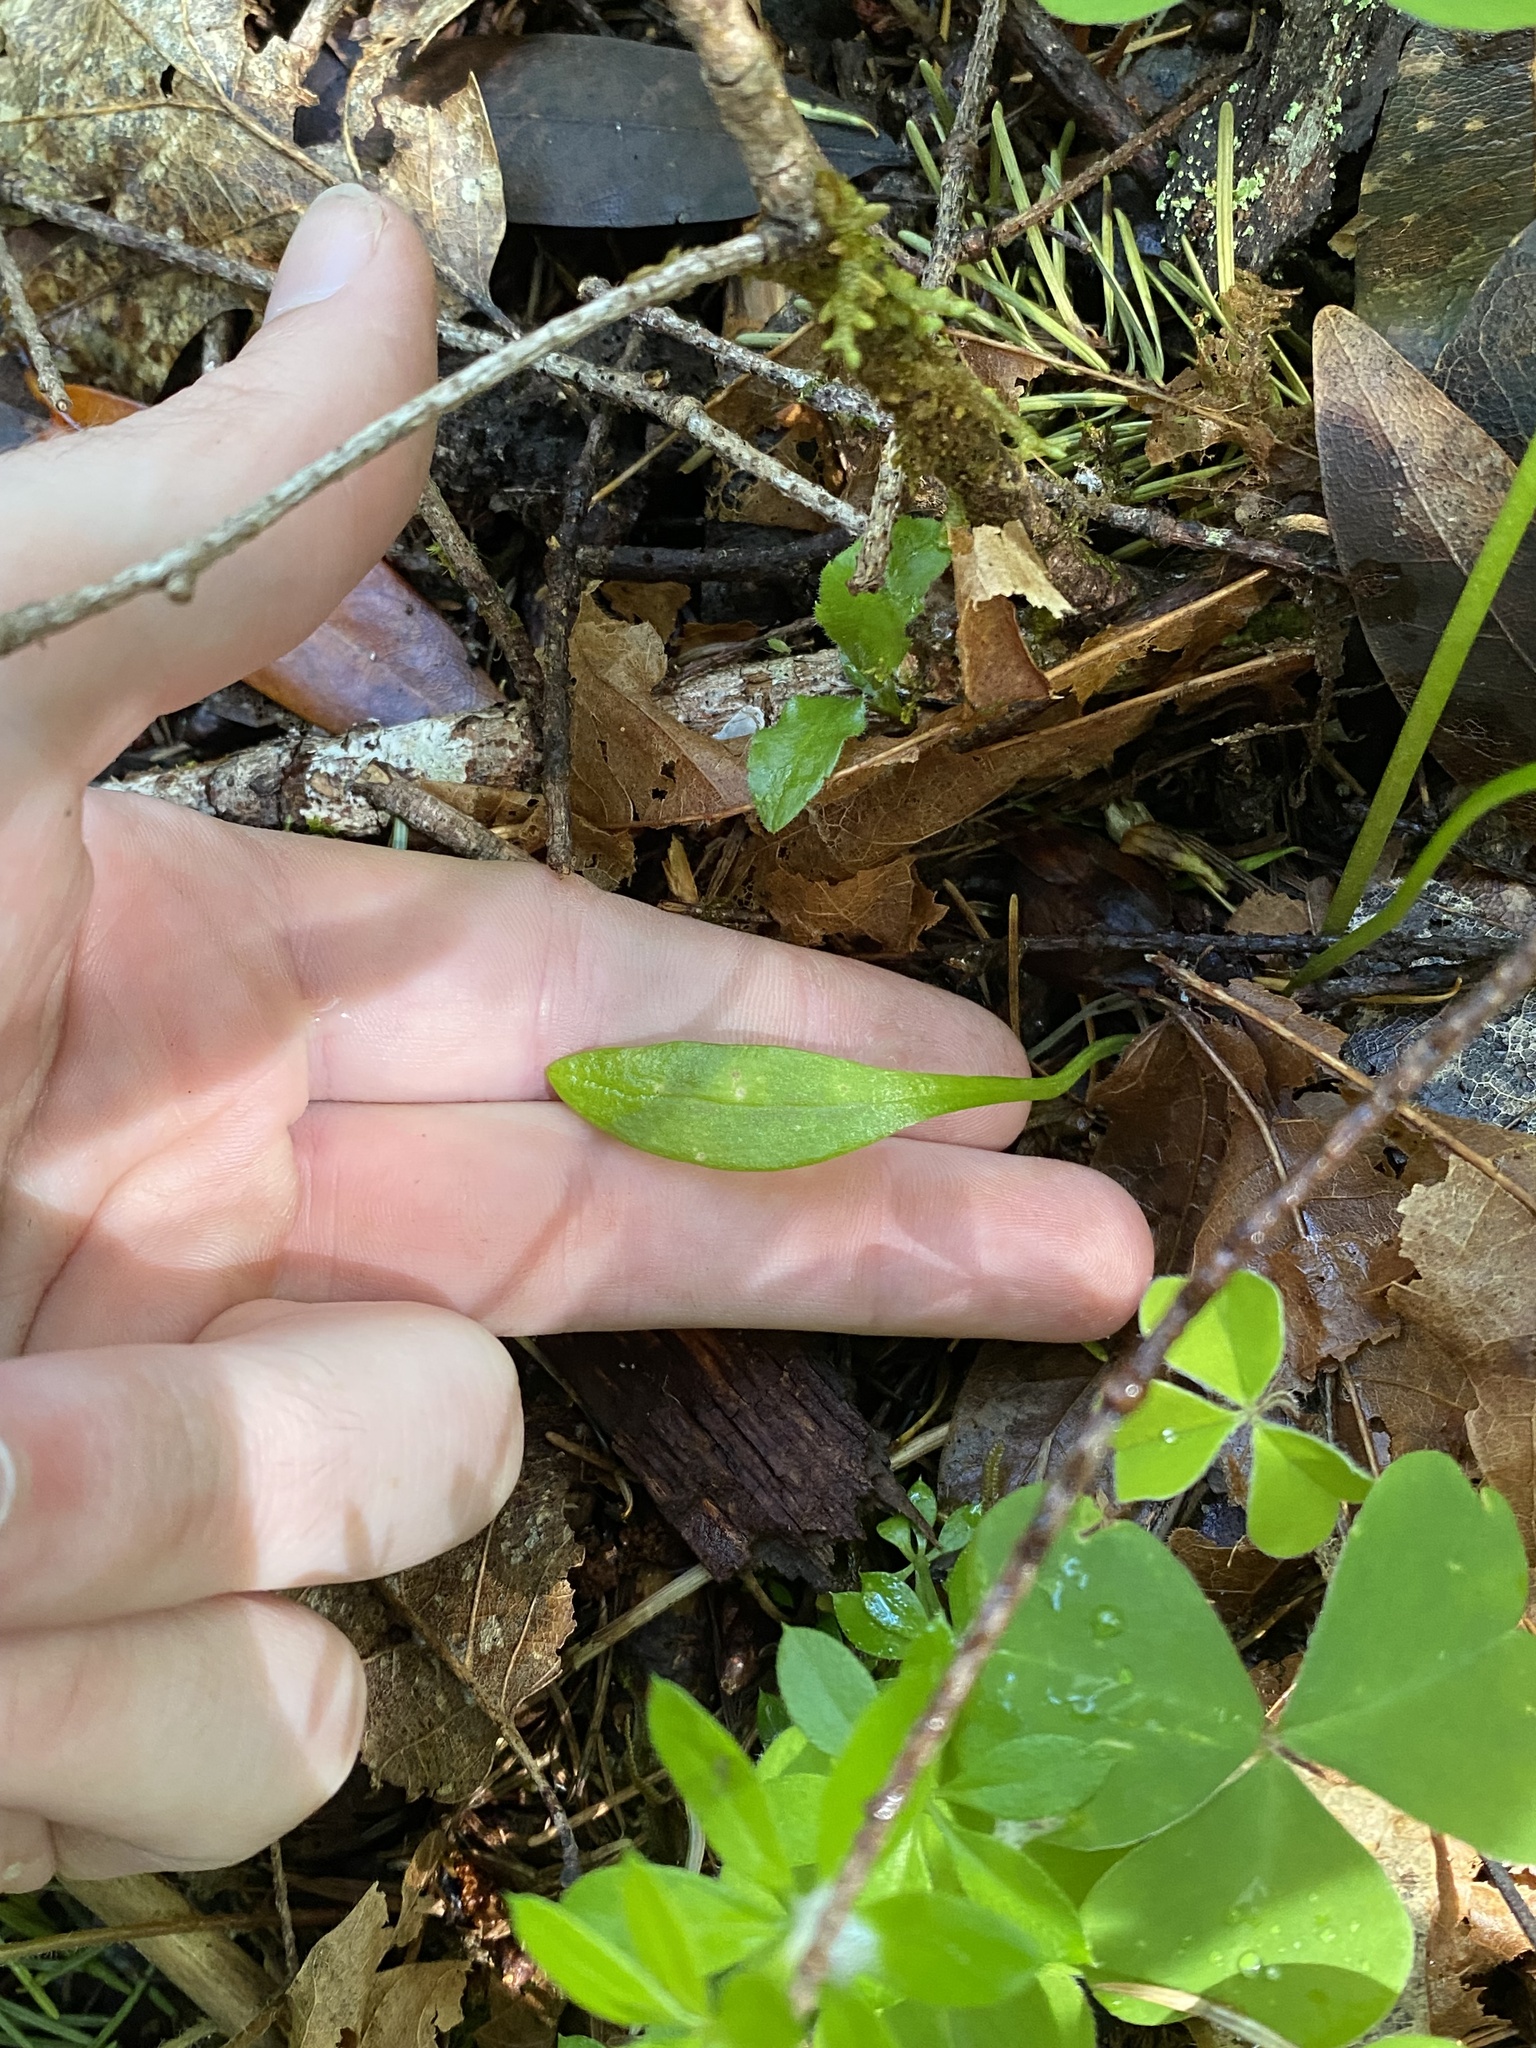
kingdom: Plantae
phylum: Tracheophyta
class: Magnoliopsida
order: Caryophyllales
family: Montiaceae
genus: Claytonia
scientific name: Claytonia sibirica
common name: Pink purslane
